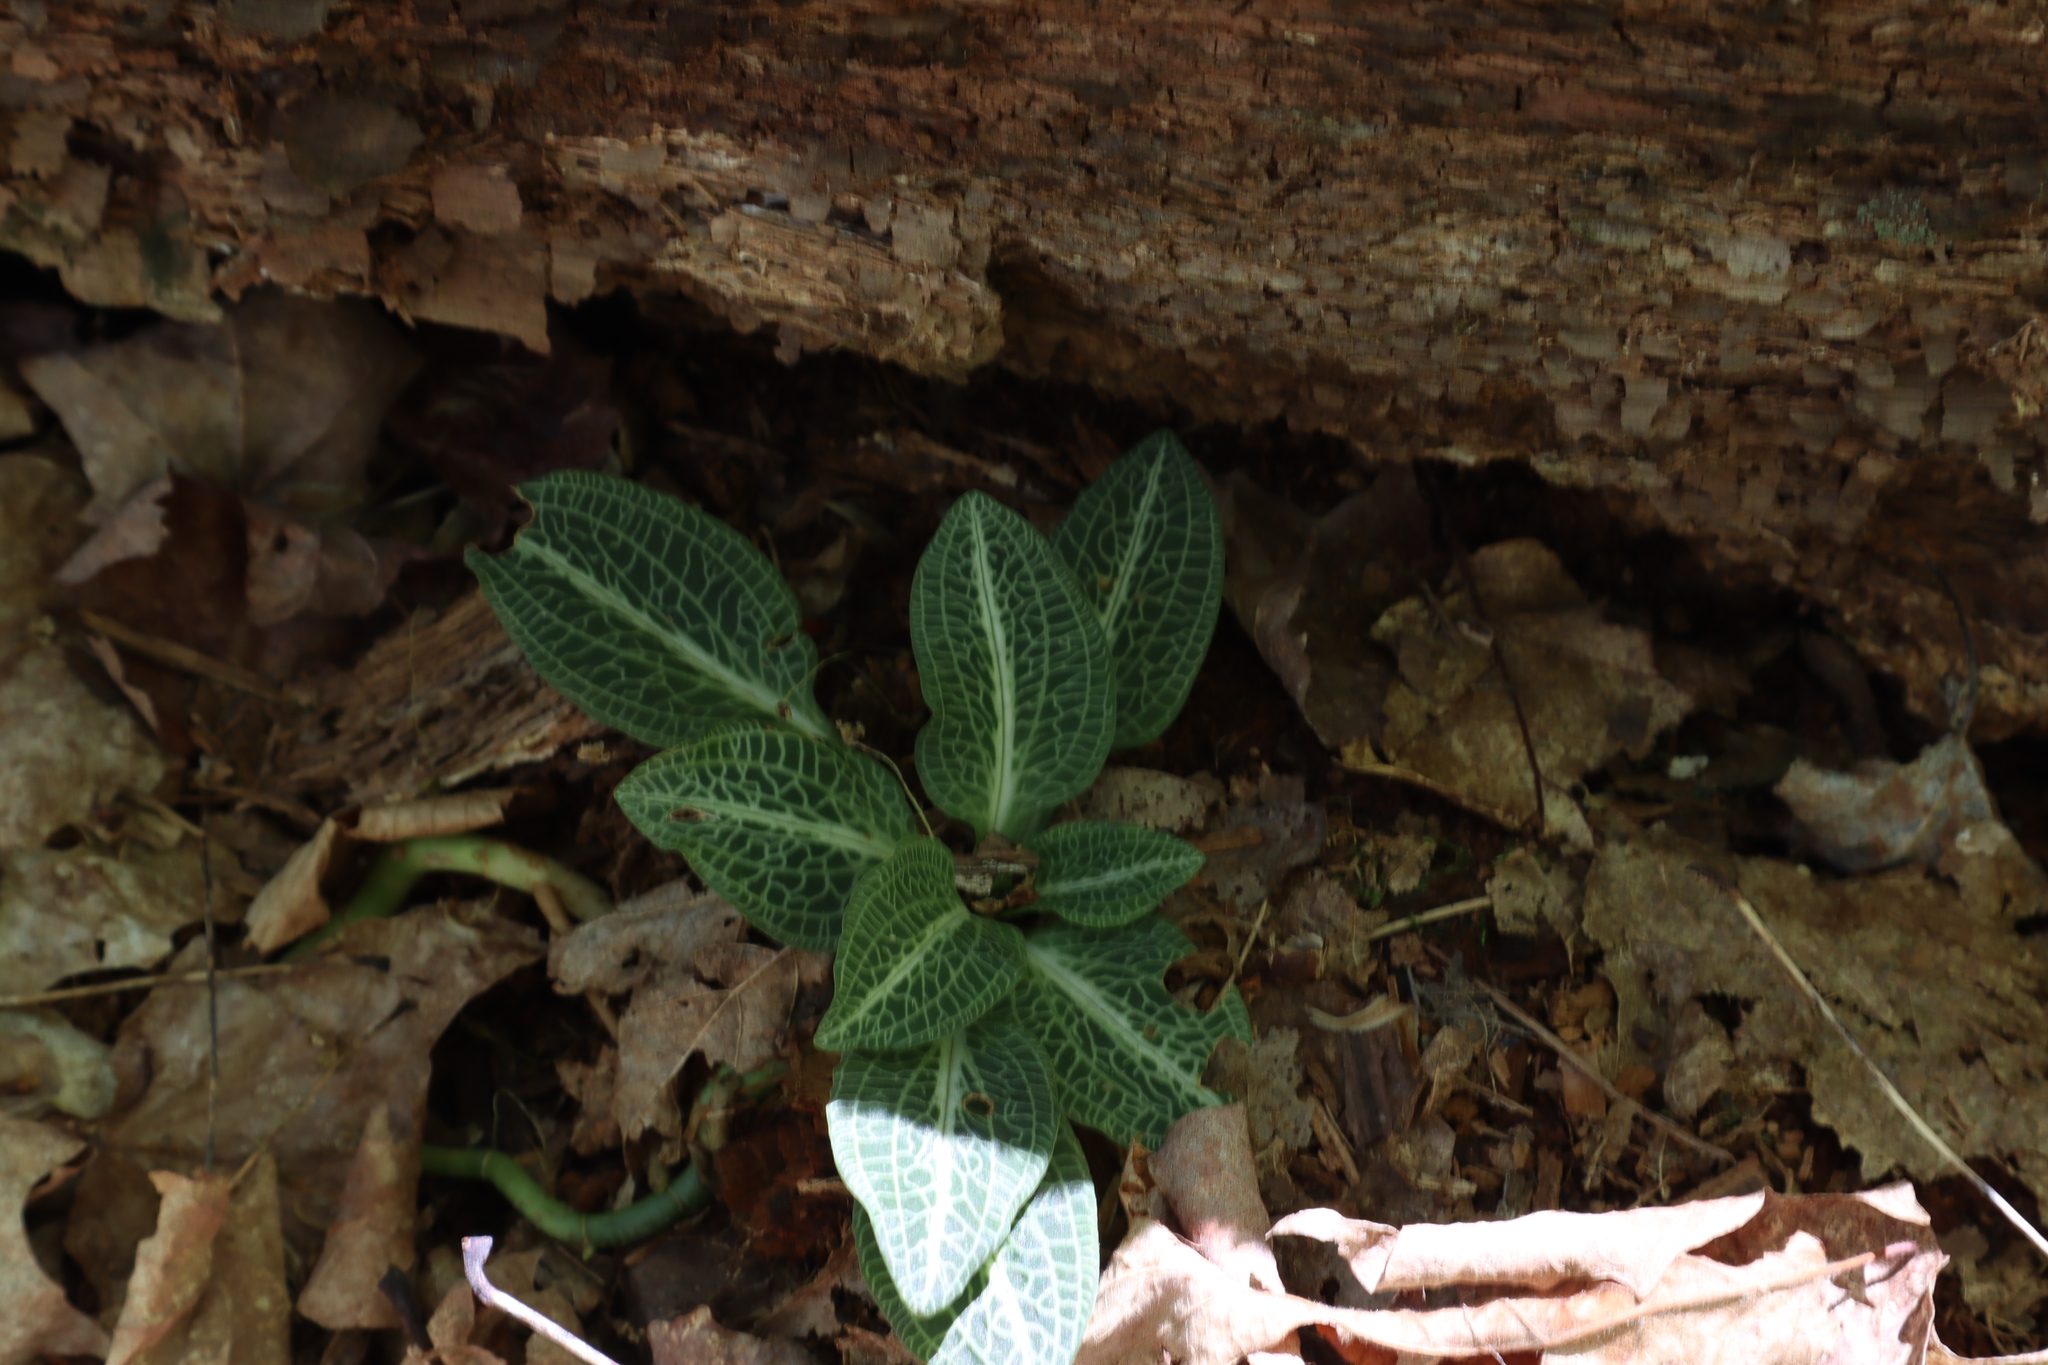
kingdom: Plantae
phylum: Tracheophyta
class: Liliopsida
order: Asparagales
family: Orchidaceae
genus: Goodyera
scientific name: Goodyera pubescens
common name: Downy rattlesnake-plantain
